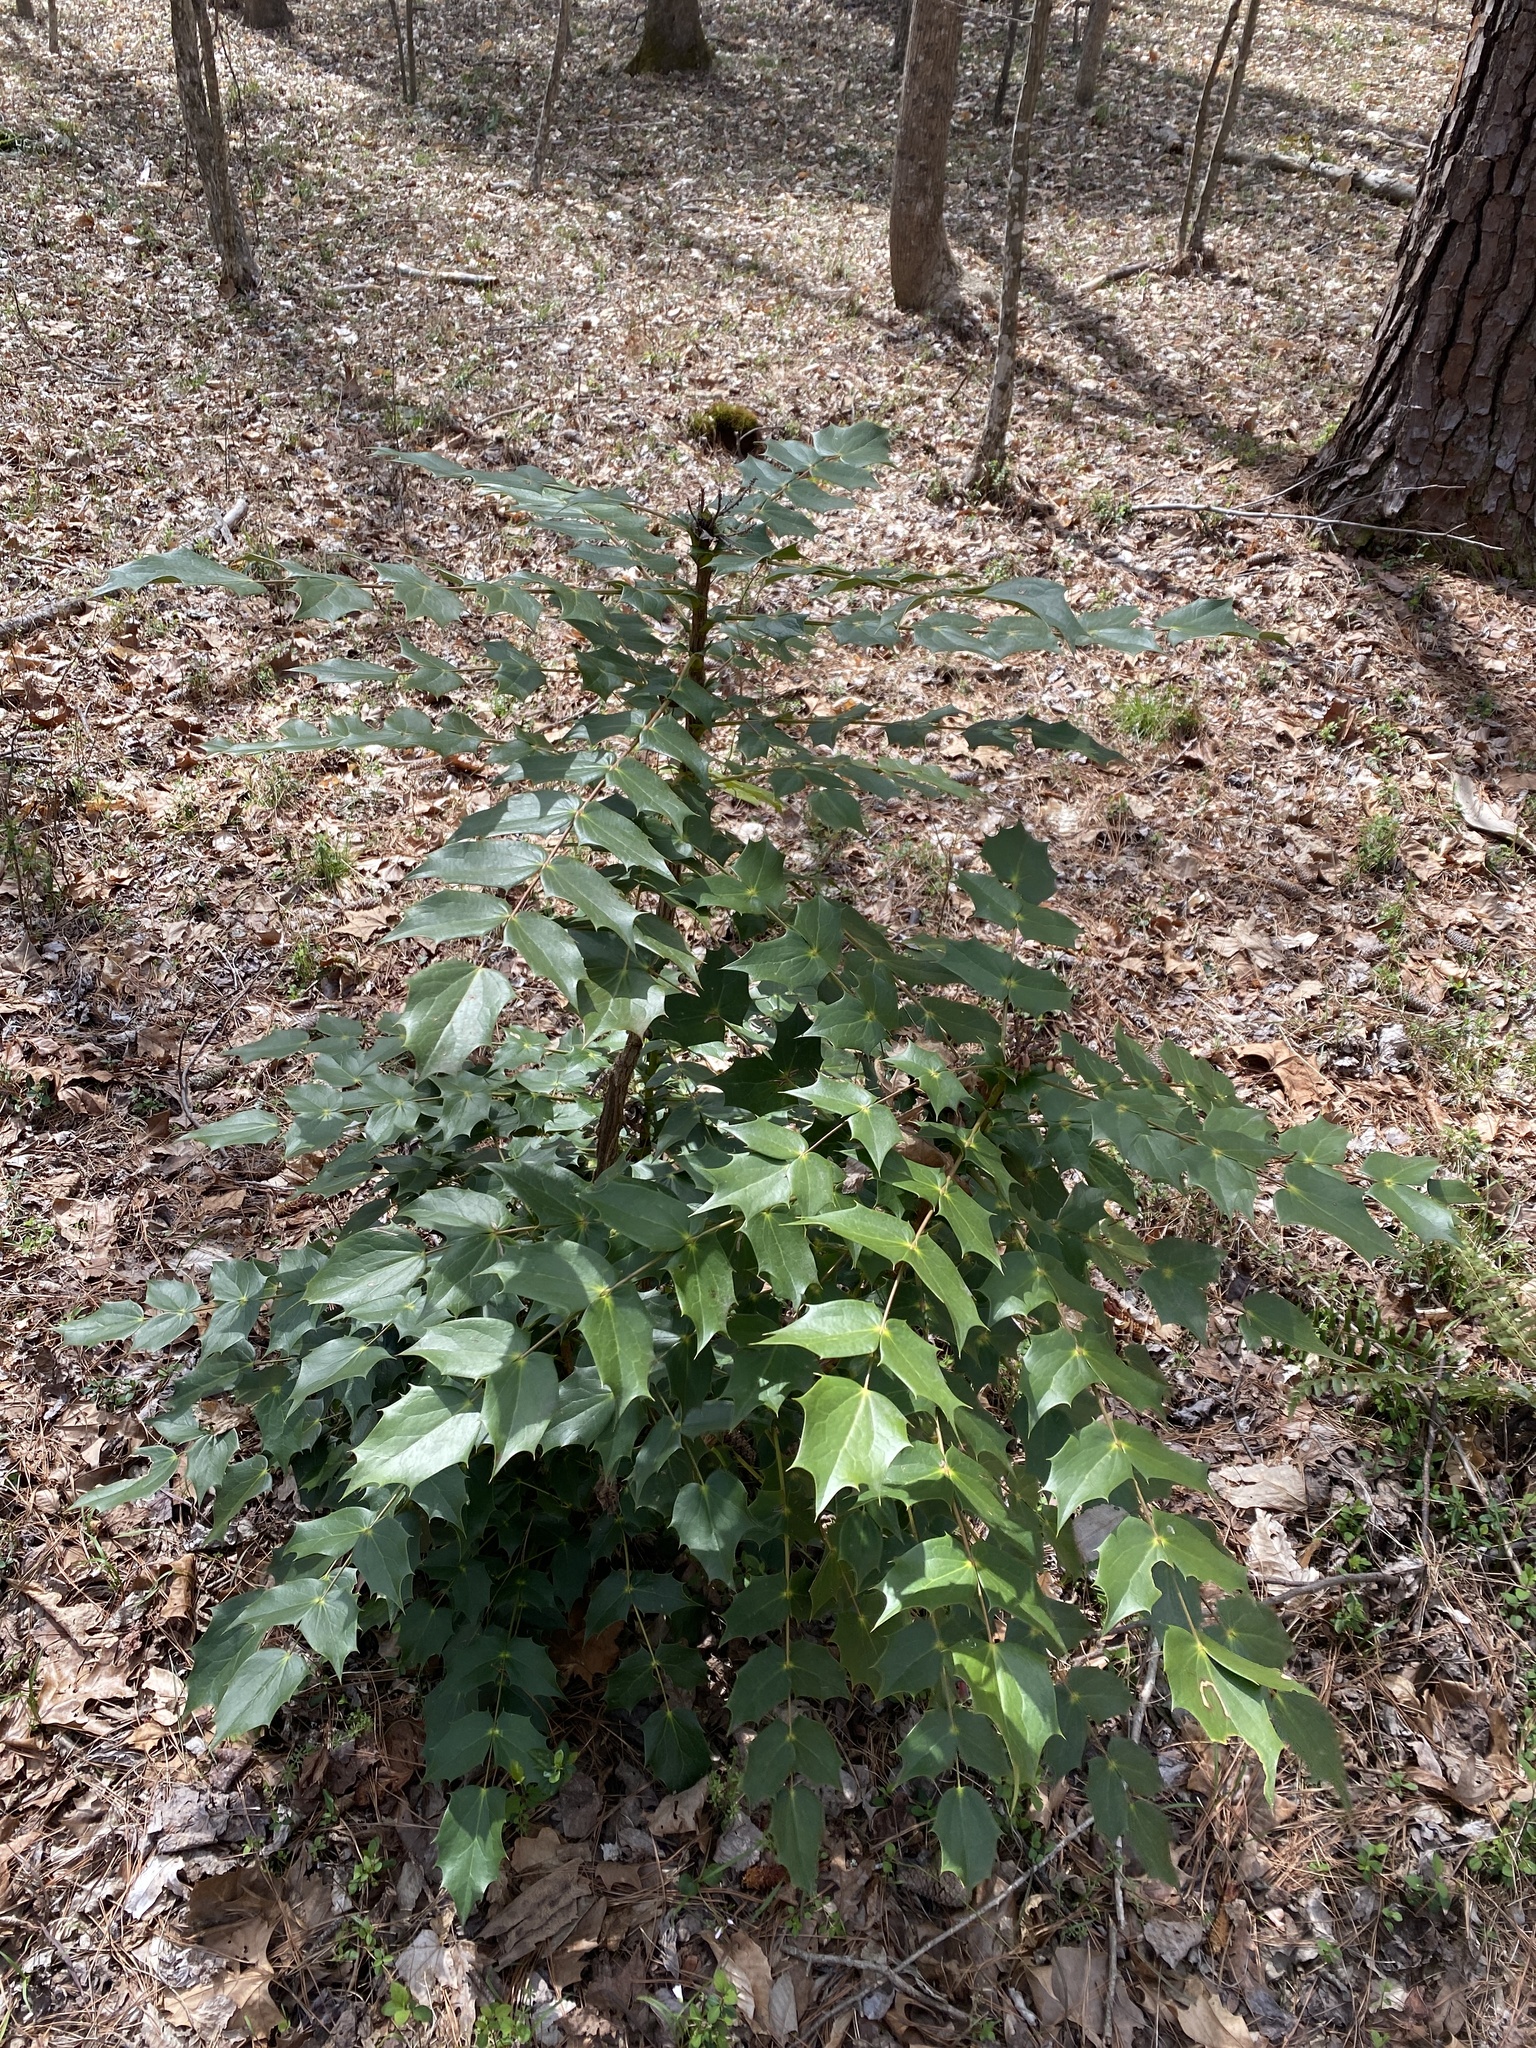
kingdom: Plantae
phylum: Tracheophyta
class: Magnoliopsida
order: Ranunculales
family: Berberidaceae
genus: Mahonia
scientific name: Mahonia bealei
